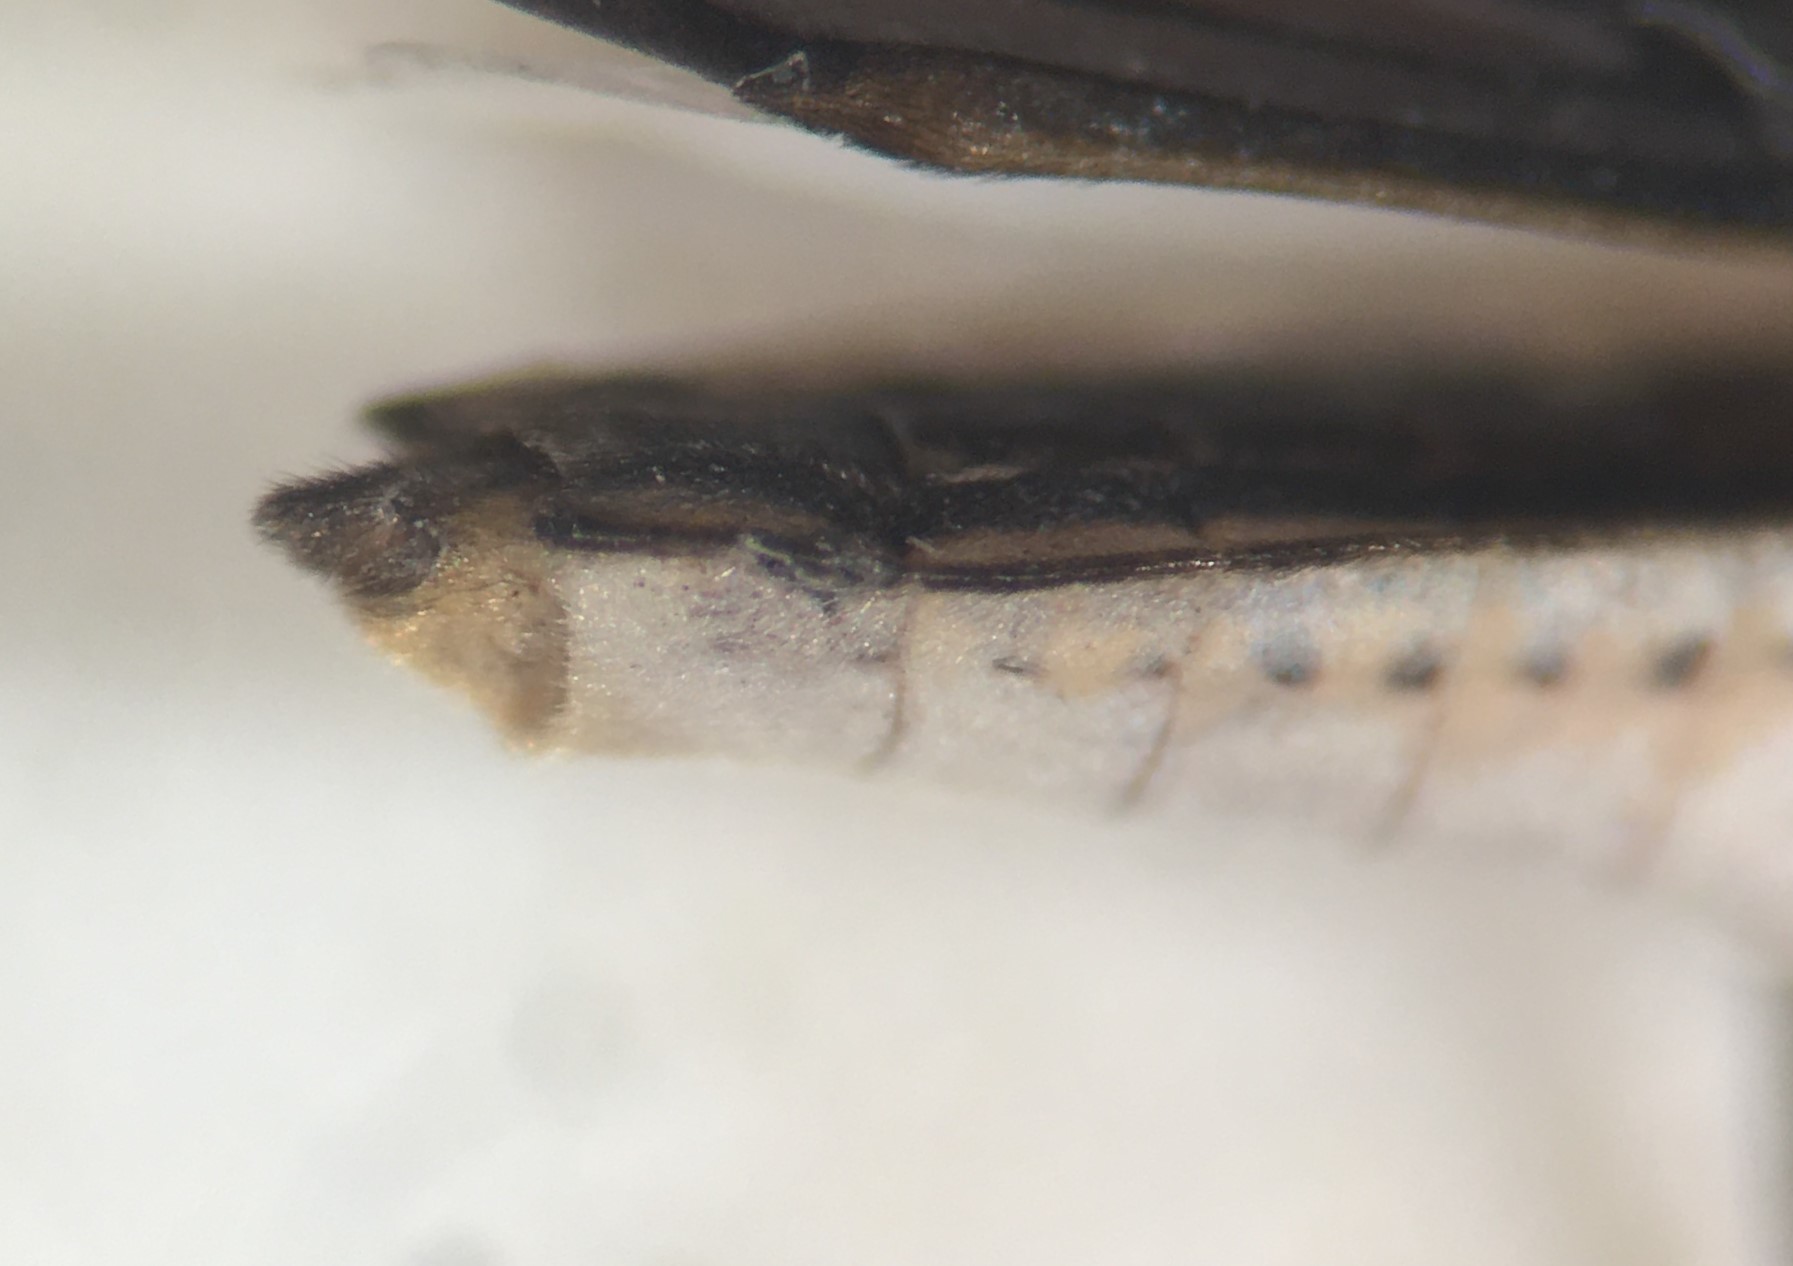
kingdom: Animalia
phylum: Arthropoda
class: Insecta
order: Hemiptera
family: Gerridae
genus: Limnogonus
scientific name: Limnogonus franciscanus
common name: Franciscan pond skater
